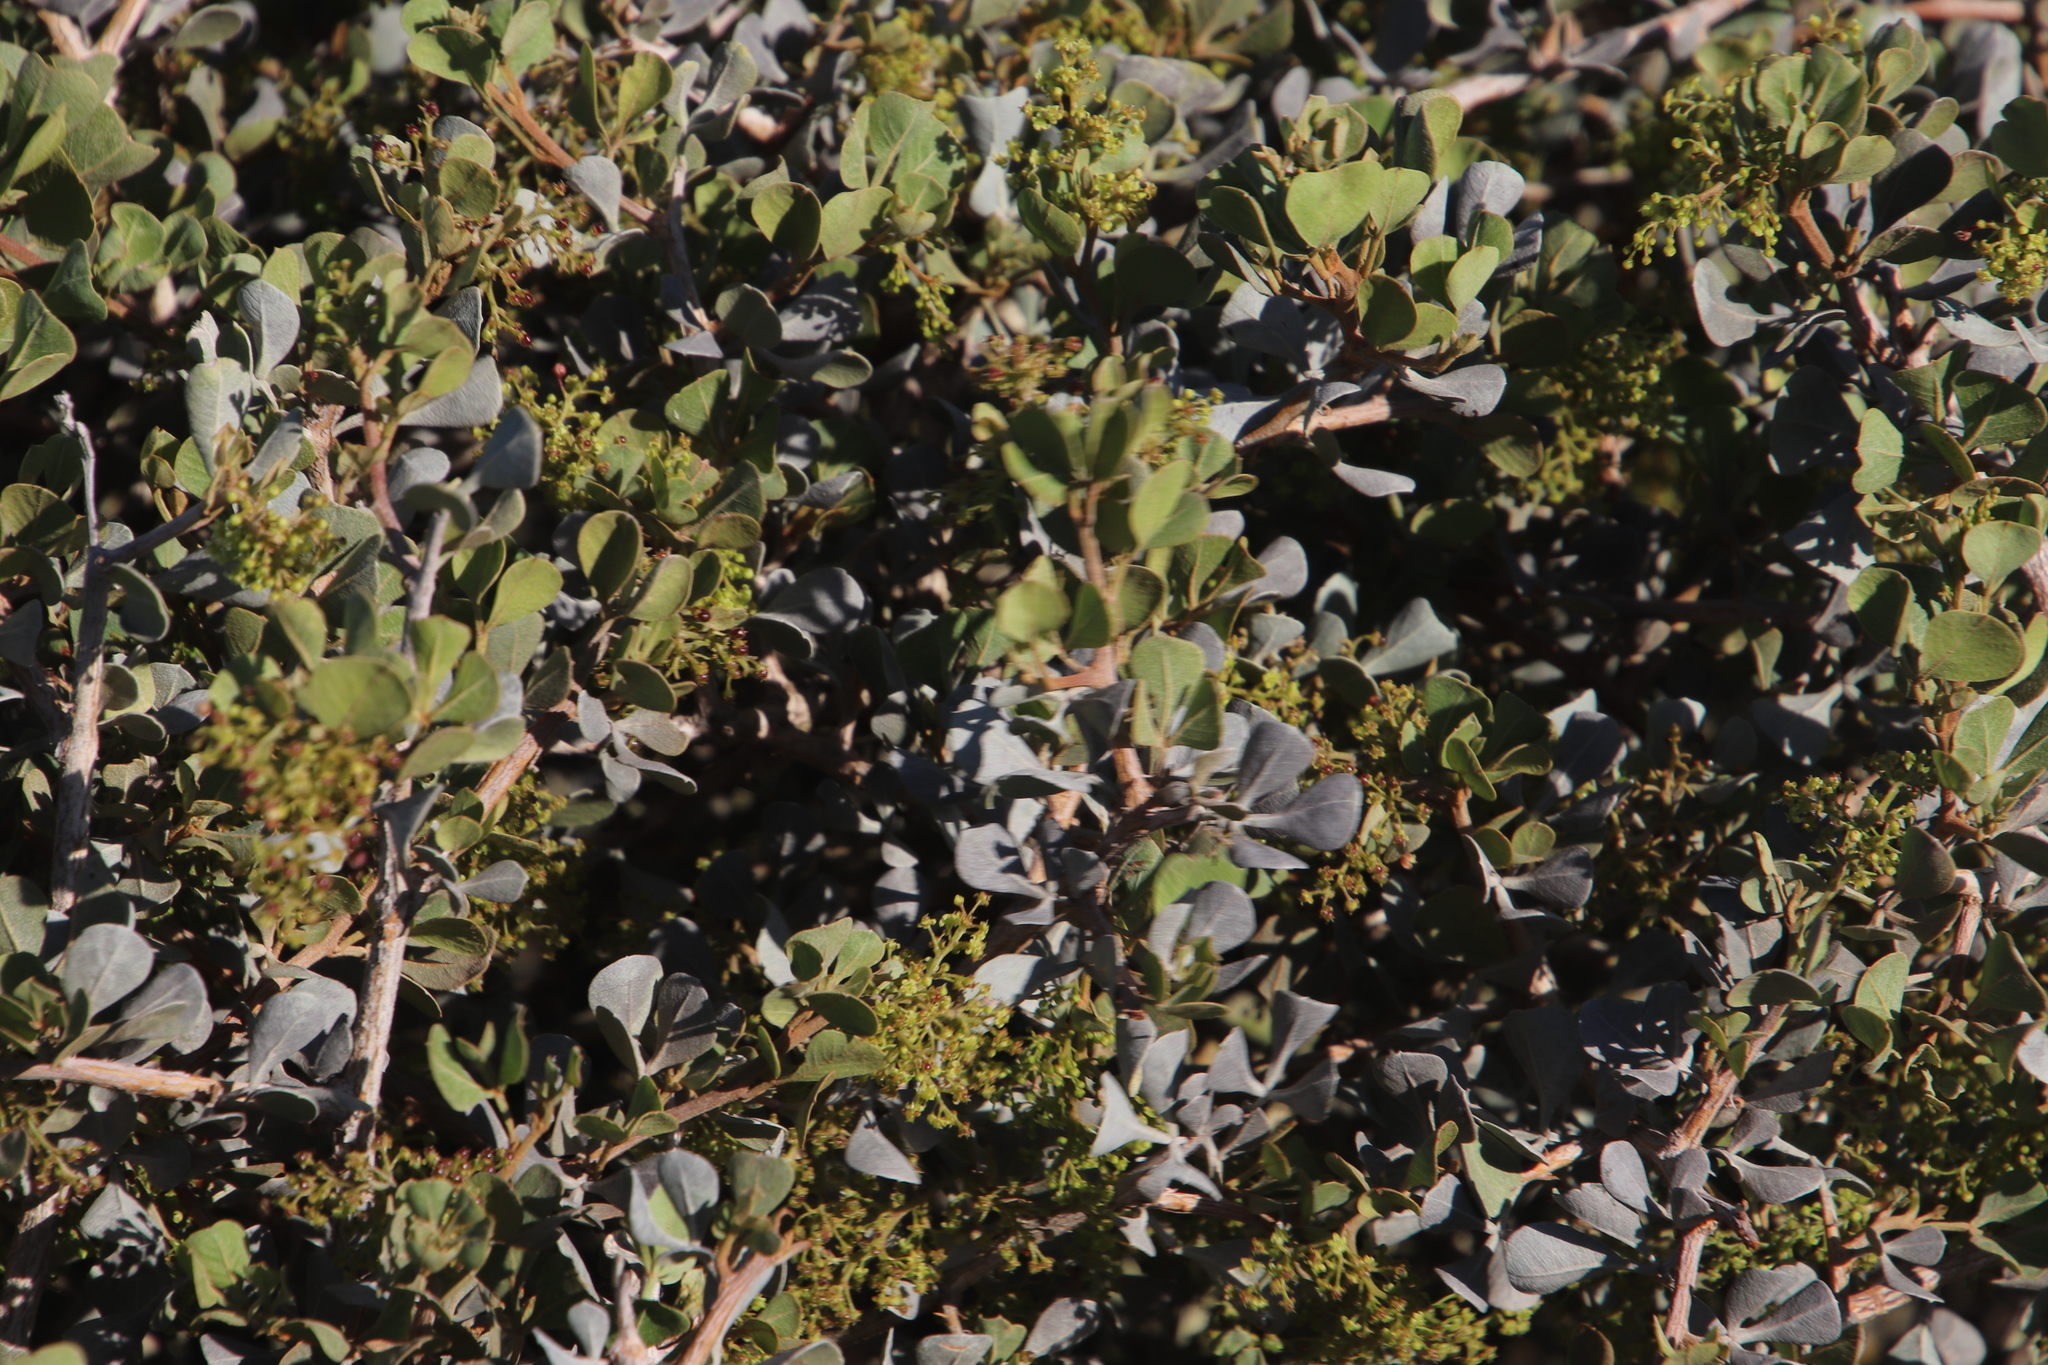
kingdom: Plantae
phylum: Tracheophyta
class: Magnoliopsida
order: Sapindales
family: Anacardiaceae
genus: Searsia
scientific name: Searsia glauca
